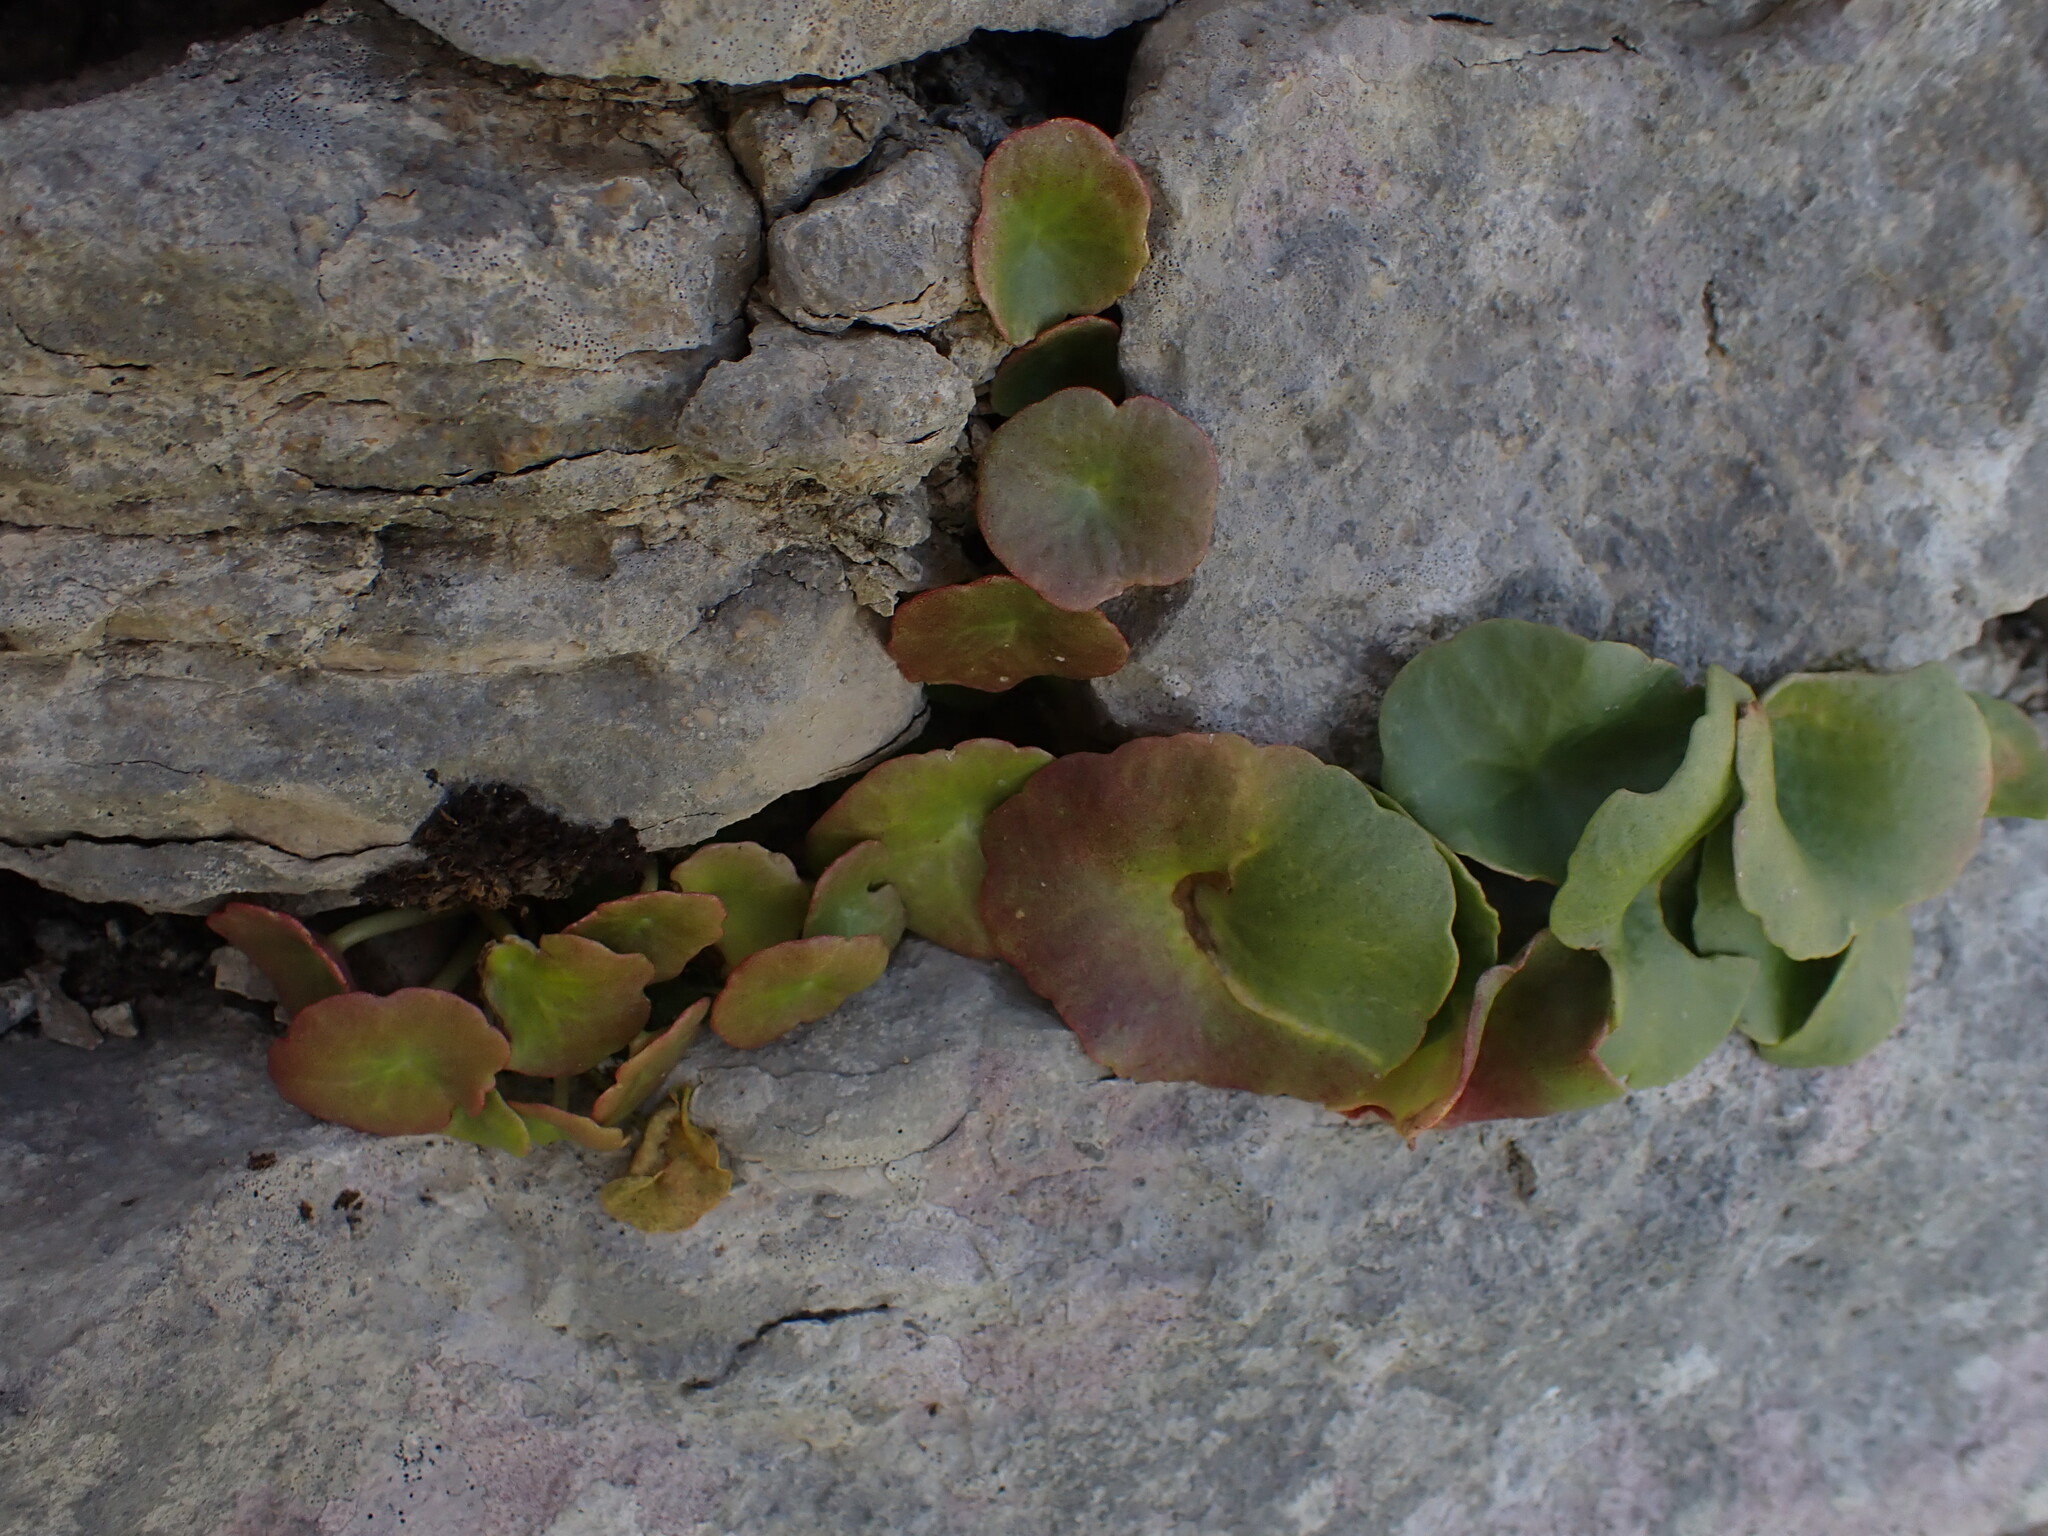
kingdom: Plantae
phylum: Tracheophyta
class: Magnoliopsida
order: Saxifragales
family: Crassulaceae
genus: Umbilicus
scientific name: Umbilicus rupestris
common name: Navelwort
